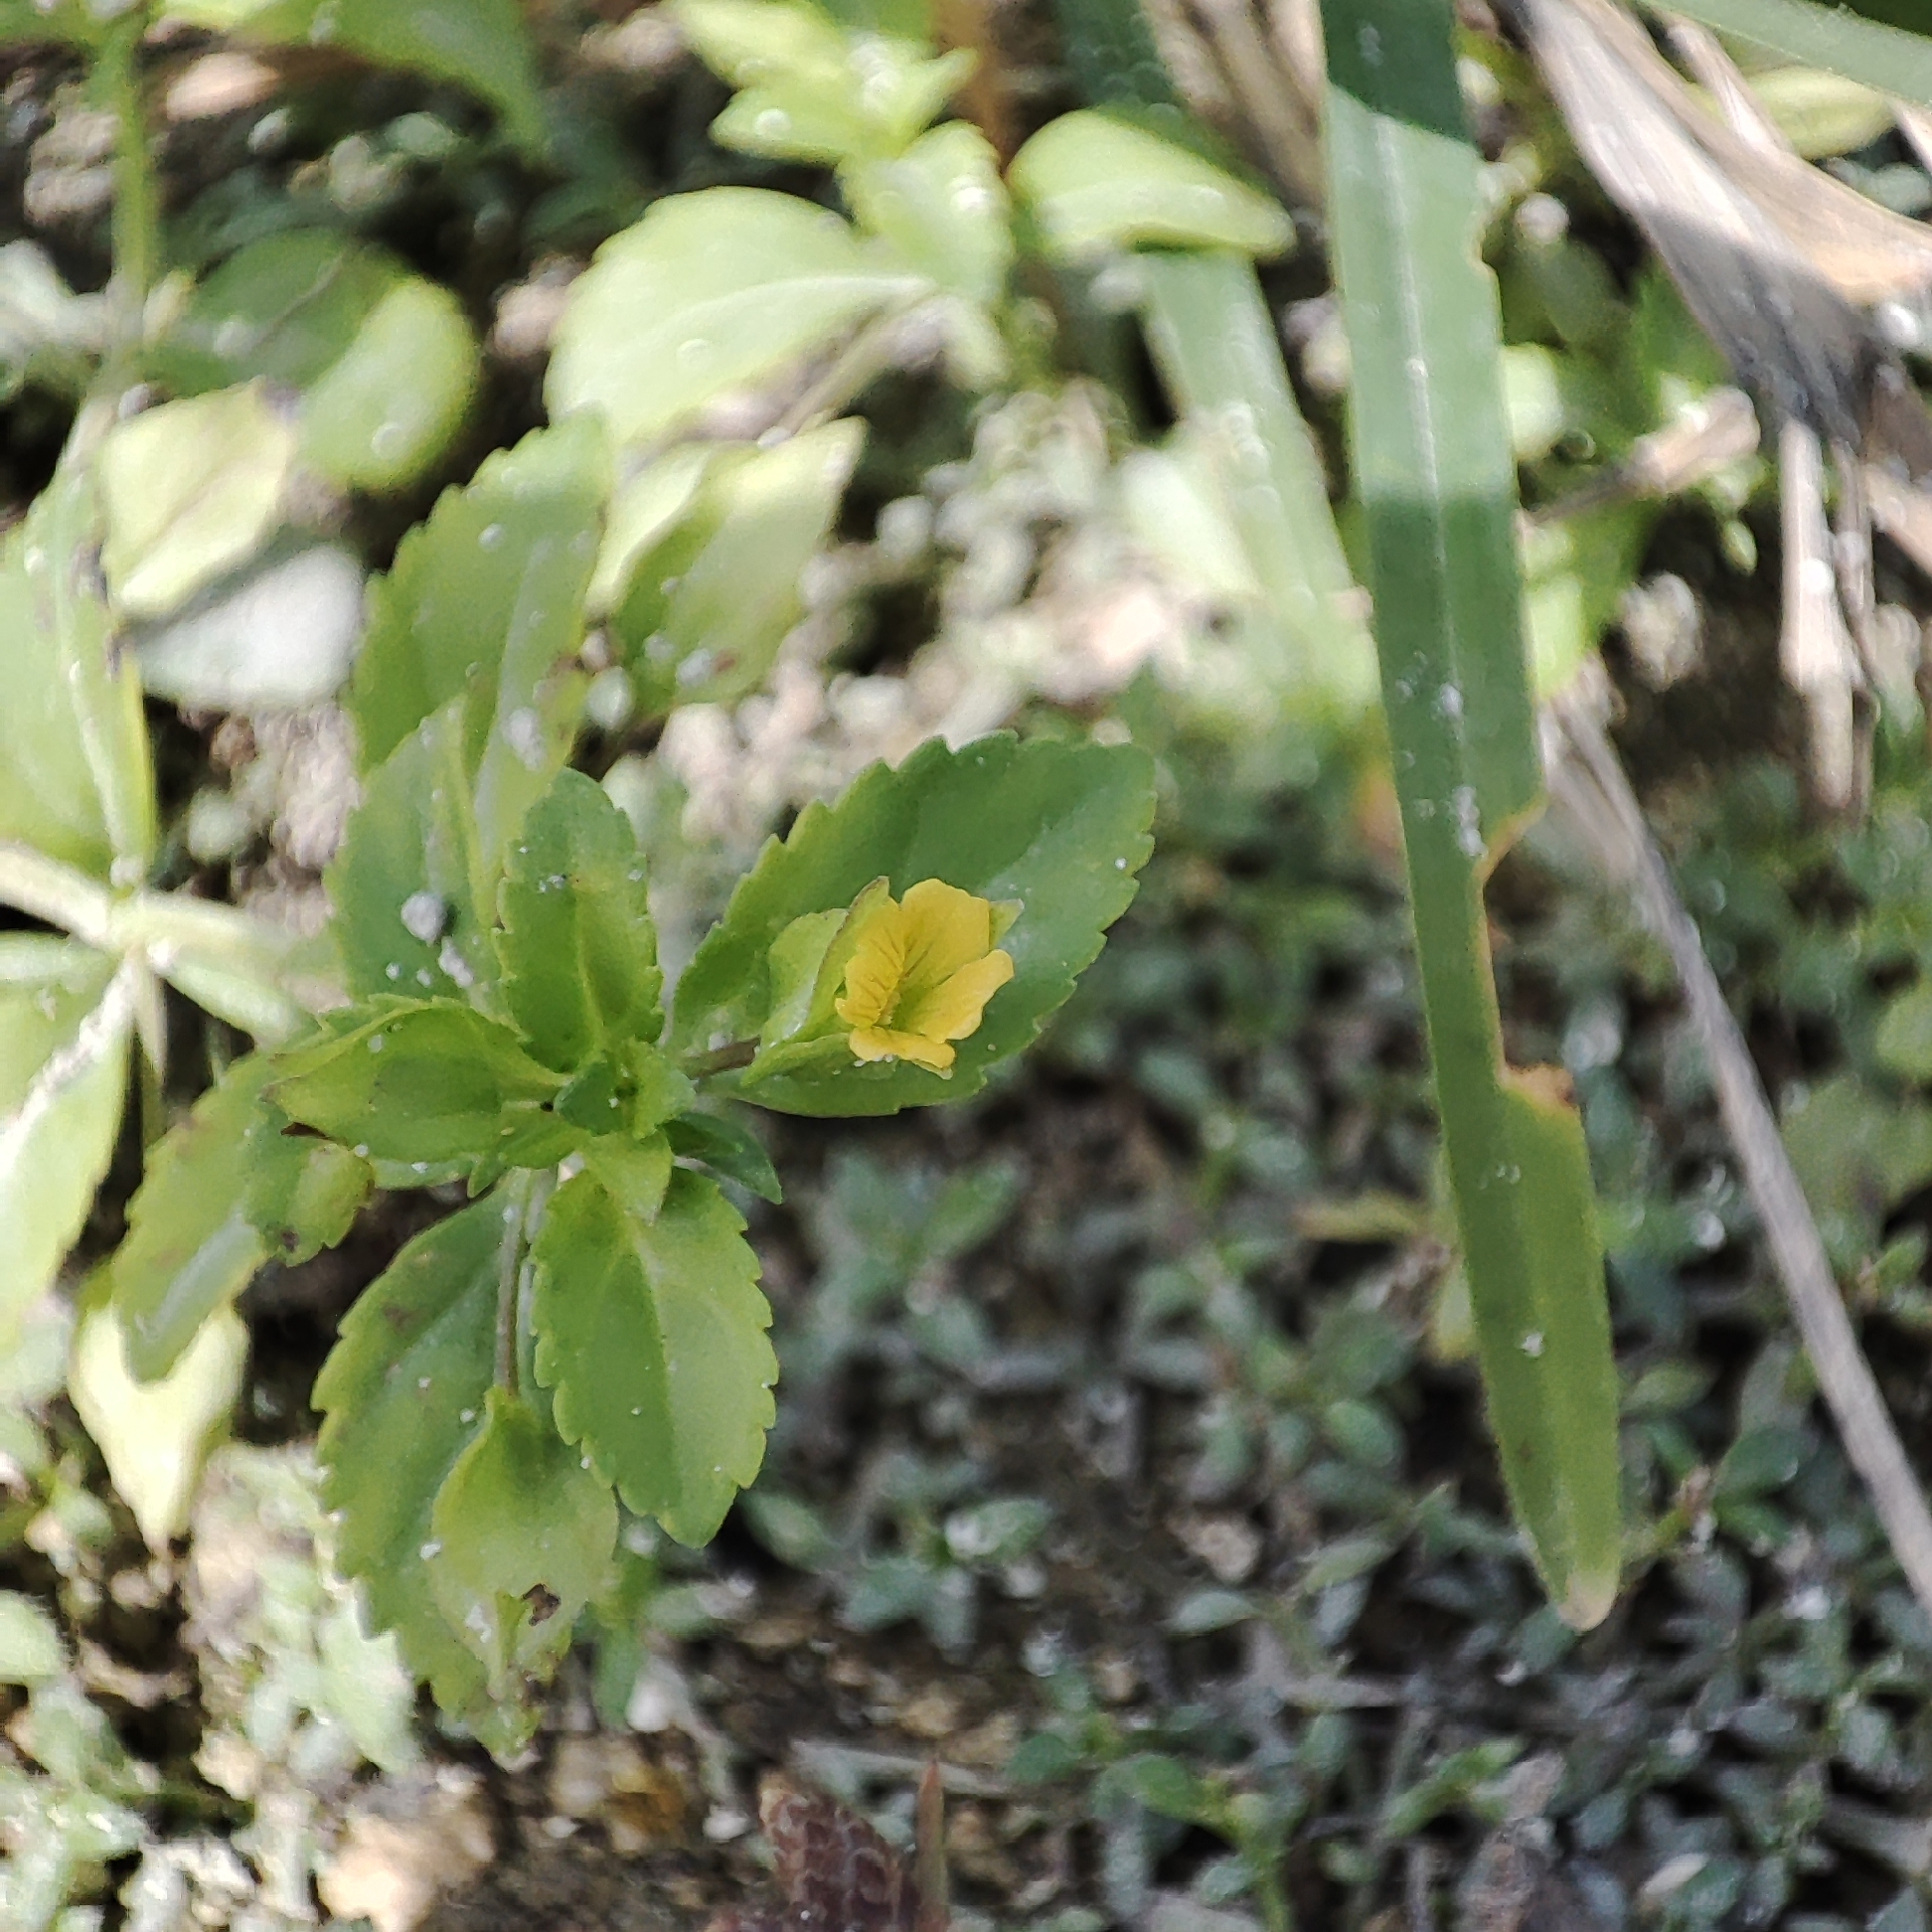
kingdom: Plantae
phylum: Tracheophyta
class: Magnoliopsida
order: Lamiales
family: Plantaginaceae
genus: Mecardonia
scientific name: Mecardonia procumbens
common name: Baby jump-up
